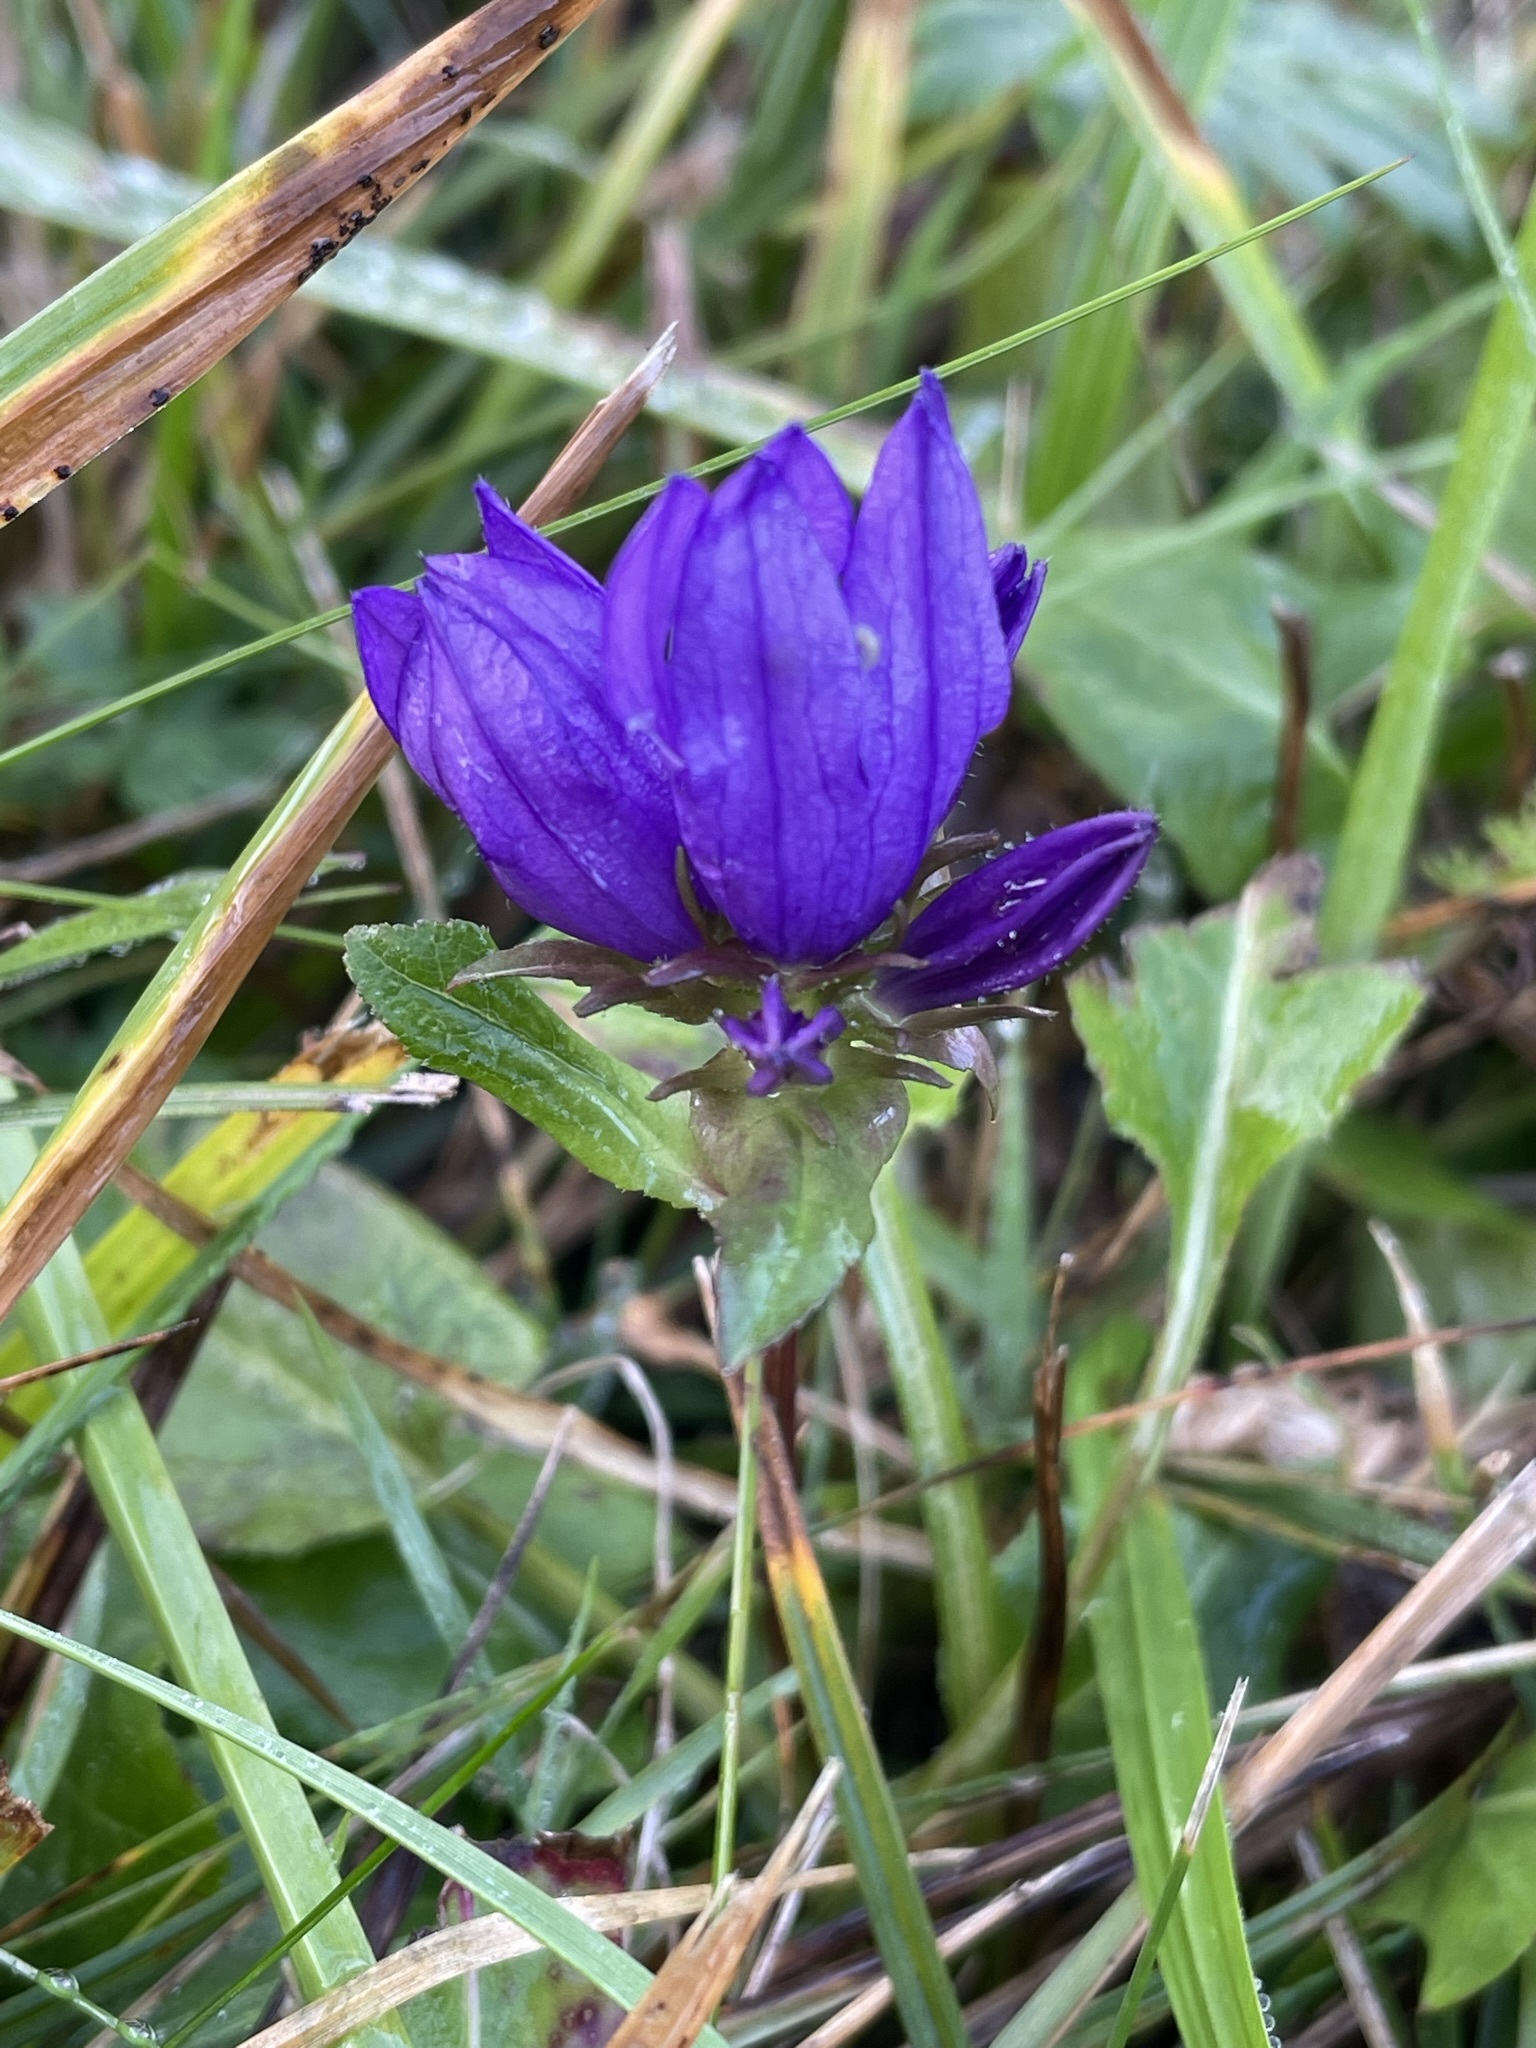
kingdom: Plantae
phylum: Tracheophyta
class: Magnoliopsida
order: Asterales
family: Campanulaceae
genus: Campanula
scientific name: Campanula glomerata
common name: Clustered bellflower
